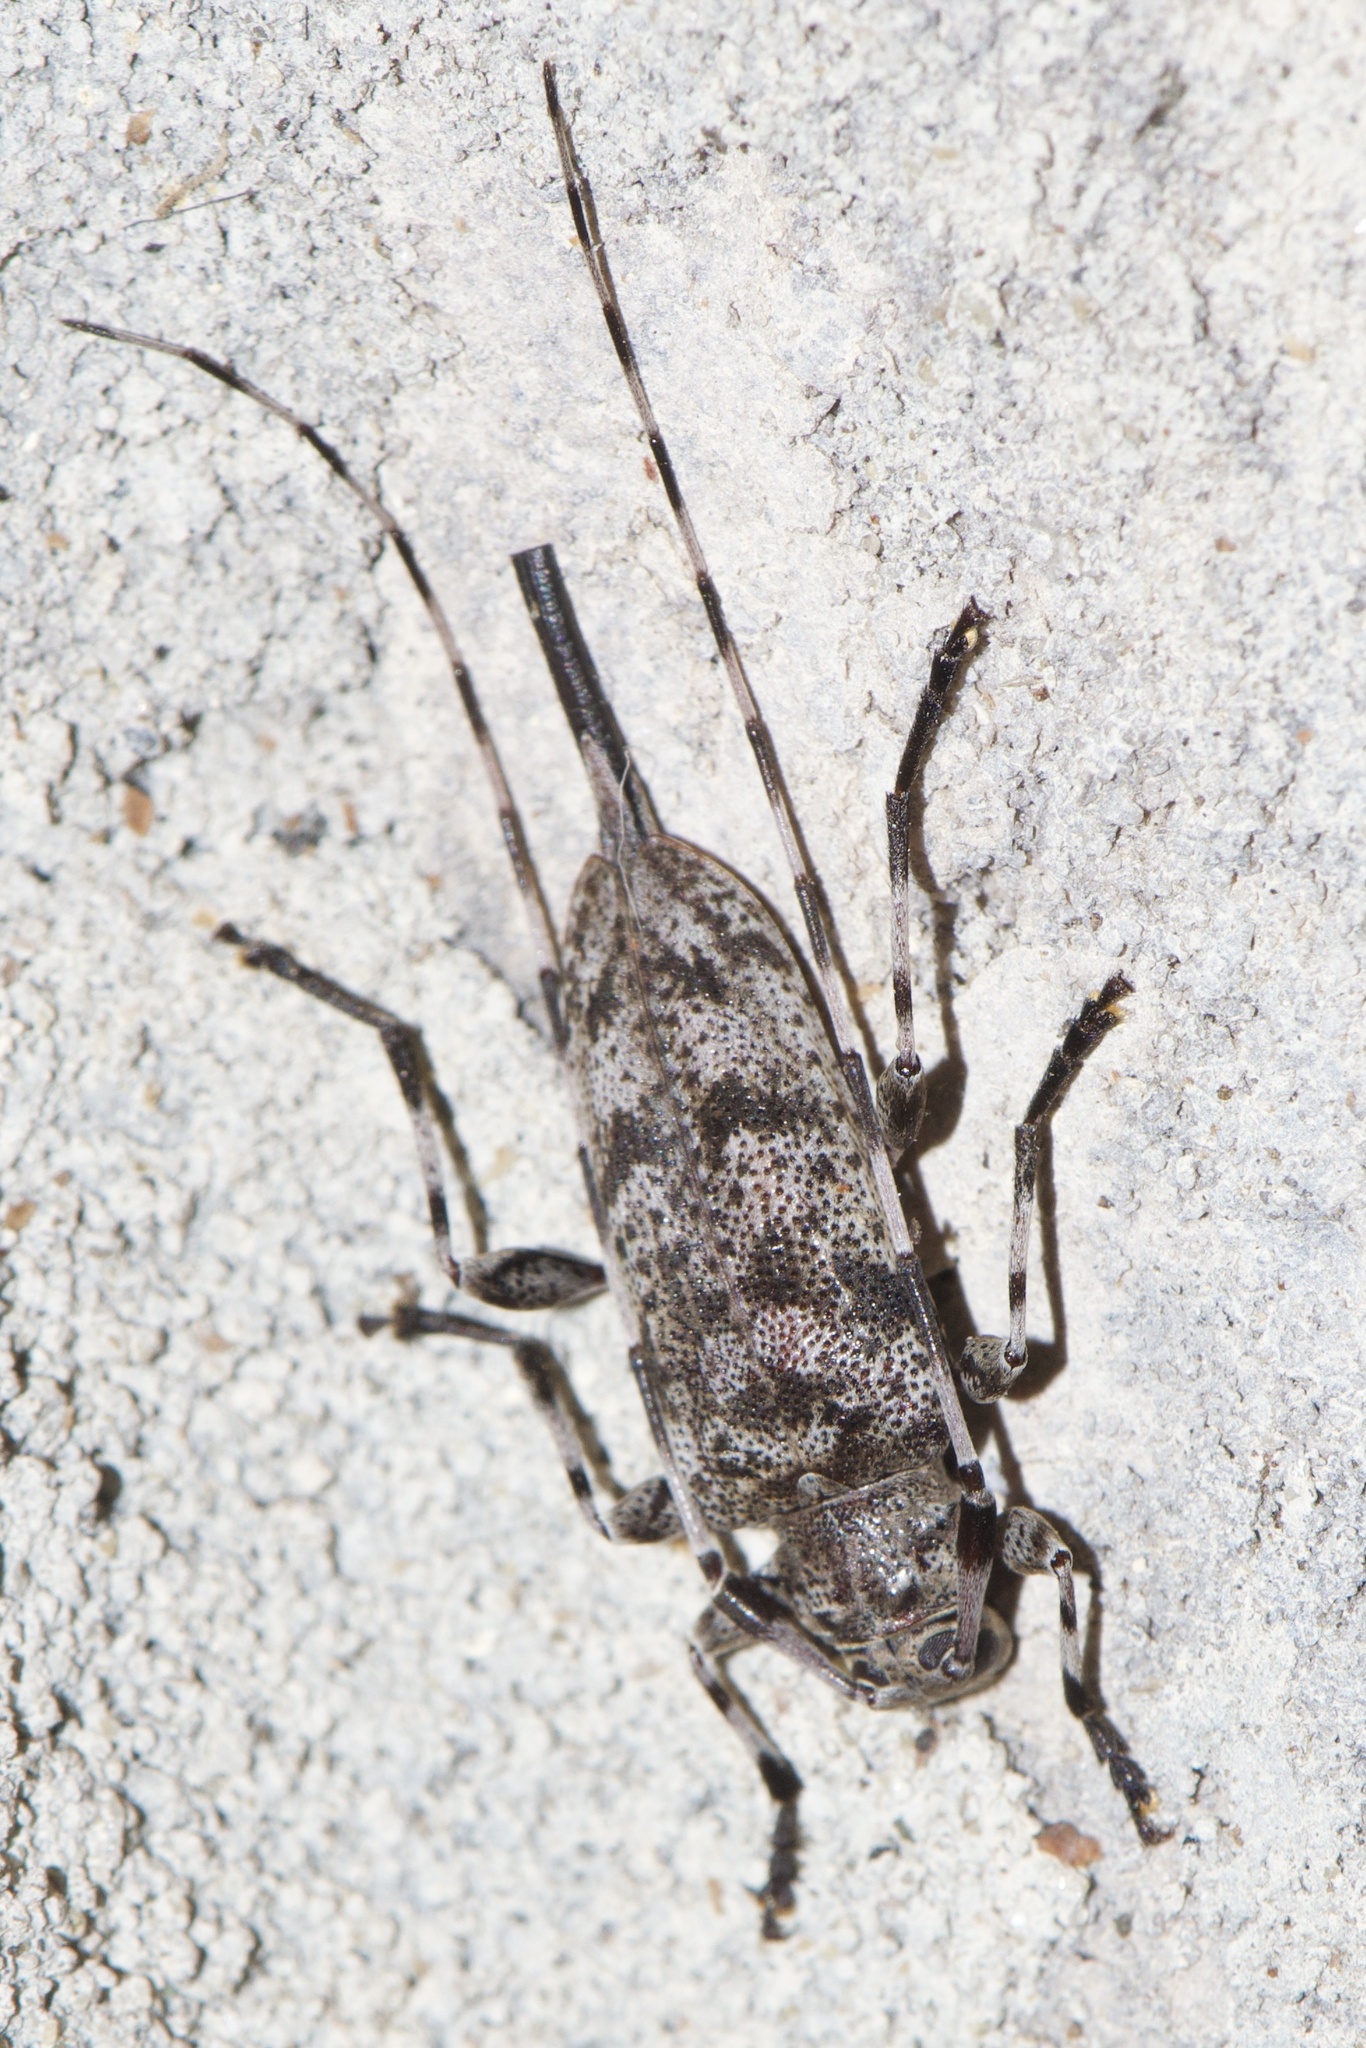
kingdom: Animalia
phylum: Arthropoda
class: Insecta
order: Coleoptera
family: Cerambycidae
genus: Acanthocinus
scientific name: Acanthocinus obsoletus
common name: Roundheaded borer
